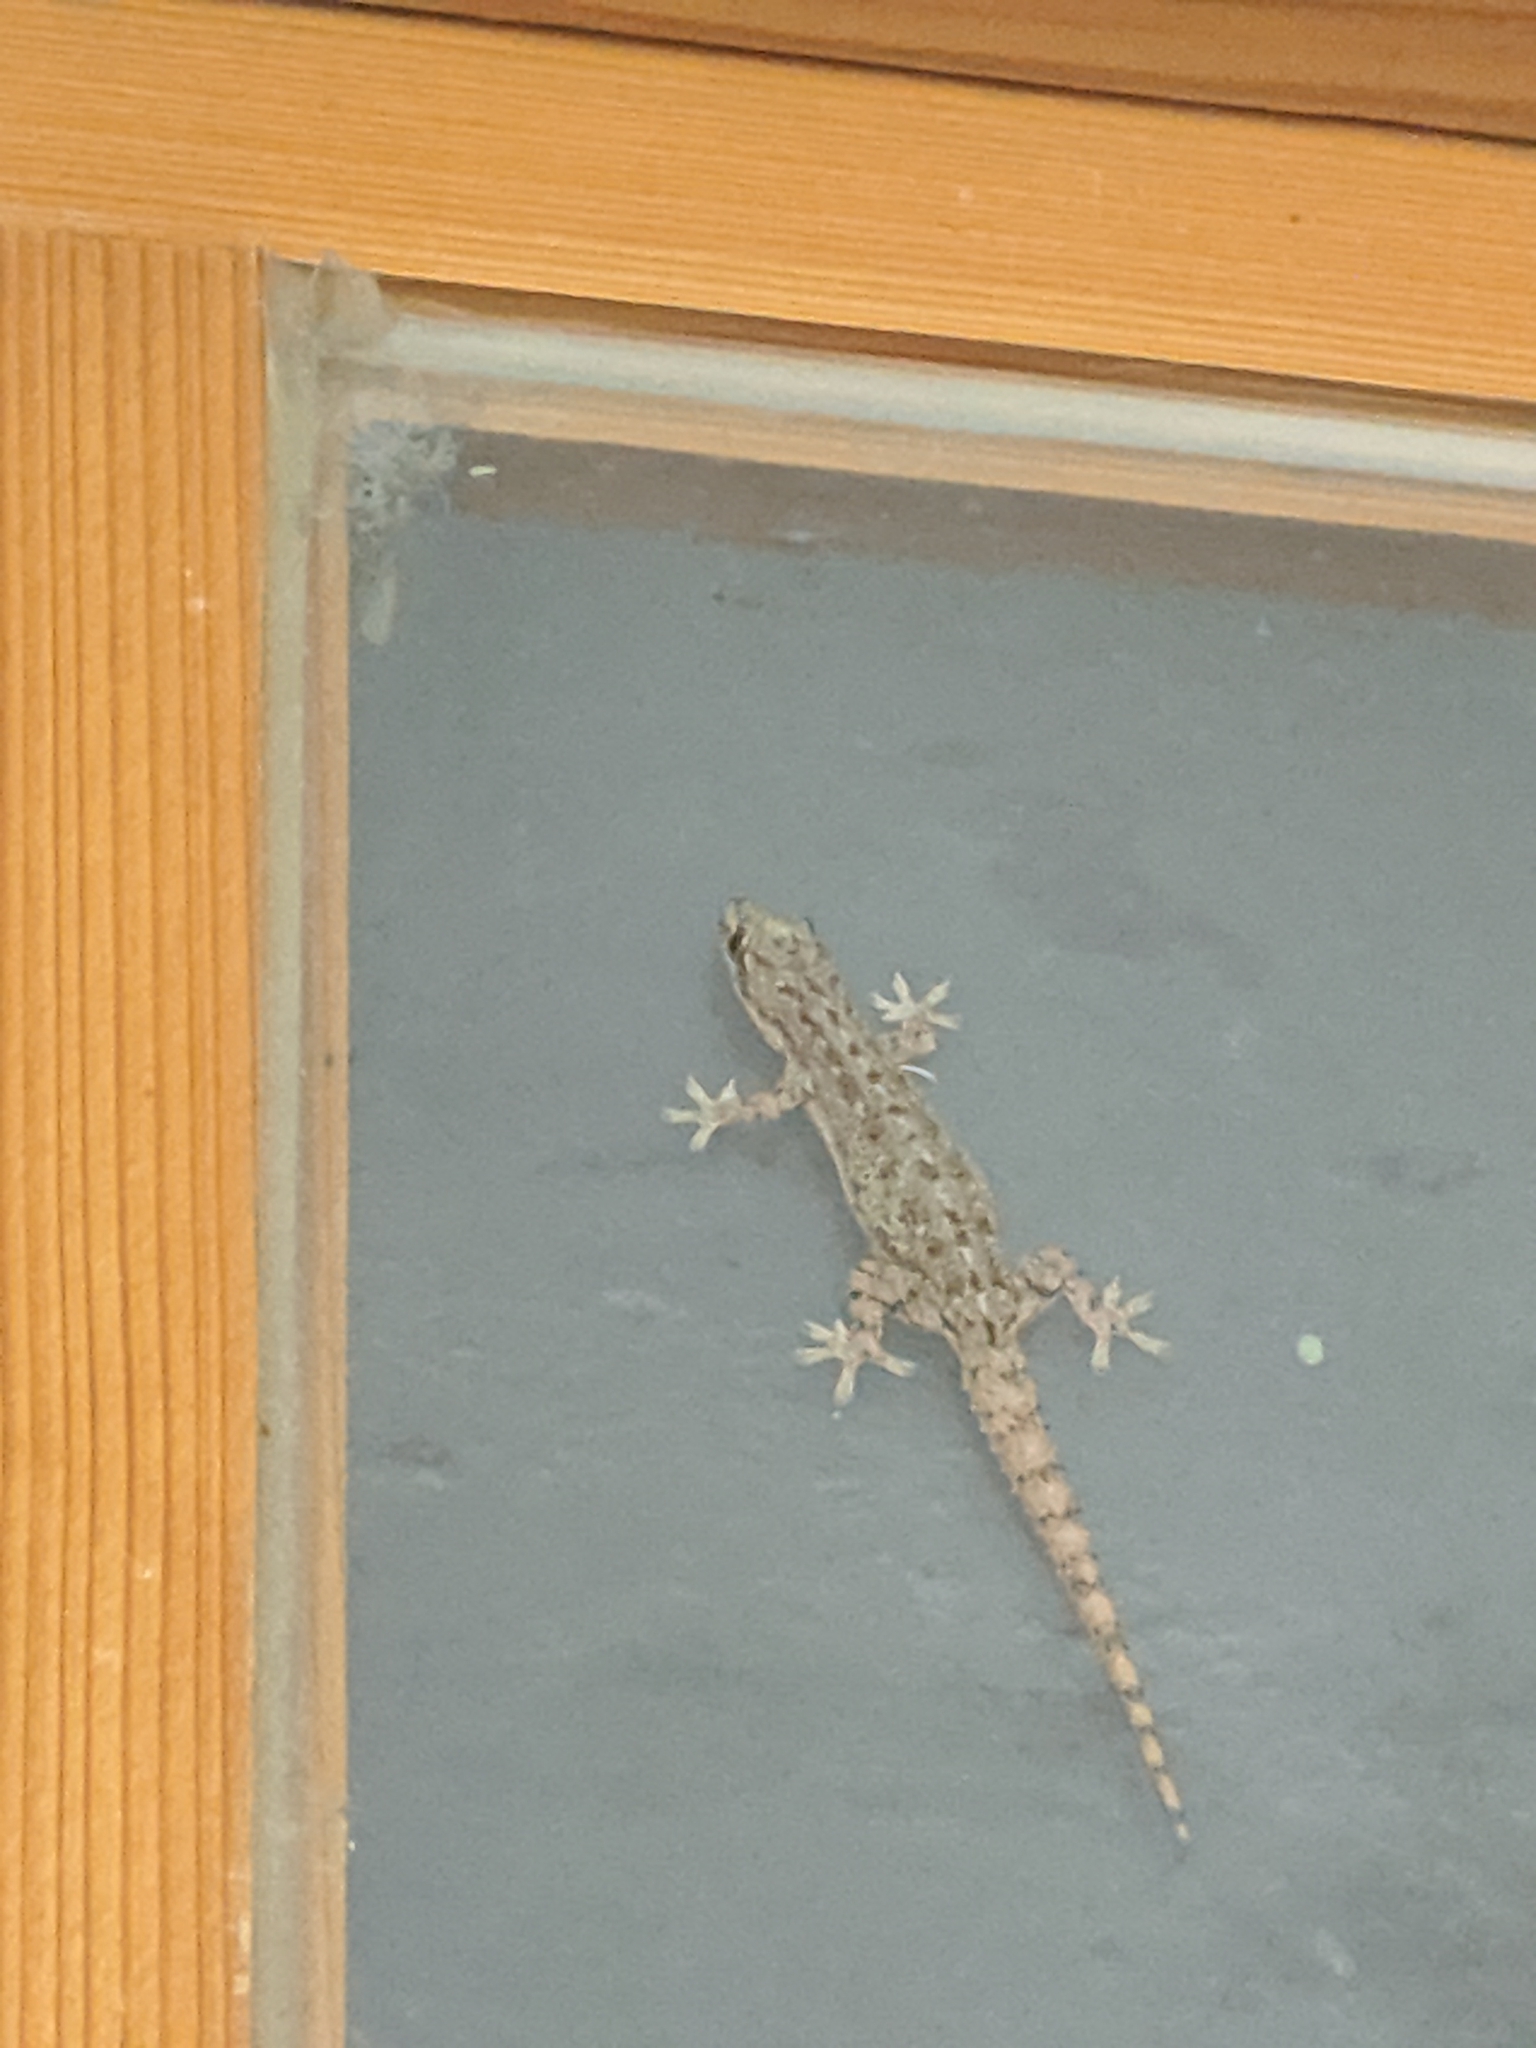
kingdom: Animalia
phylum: Chordata
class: Squamata
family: Gekkonidae
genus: Hemidactylus
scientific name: Hemidactylus frenatus
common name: Common house gecko
